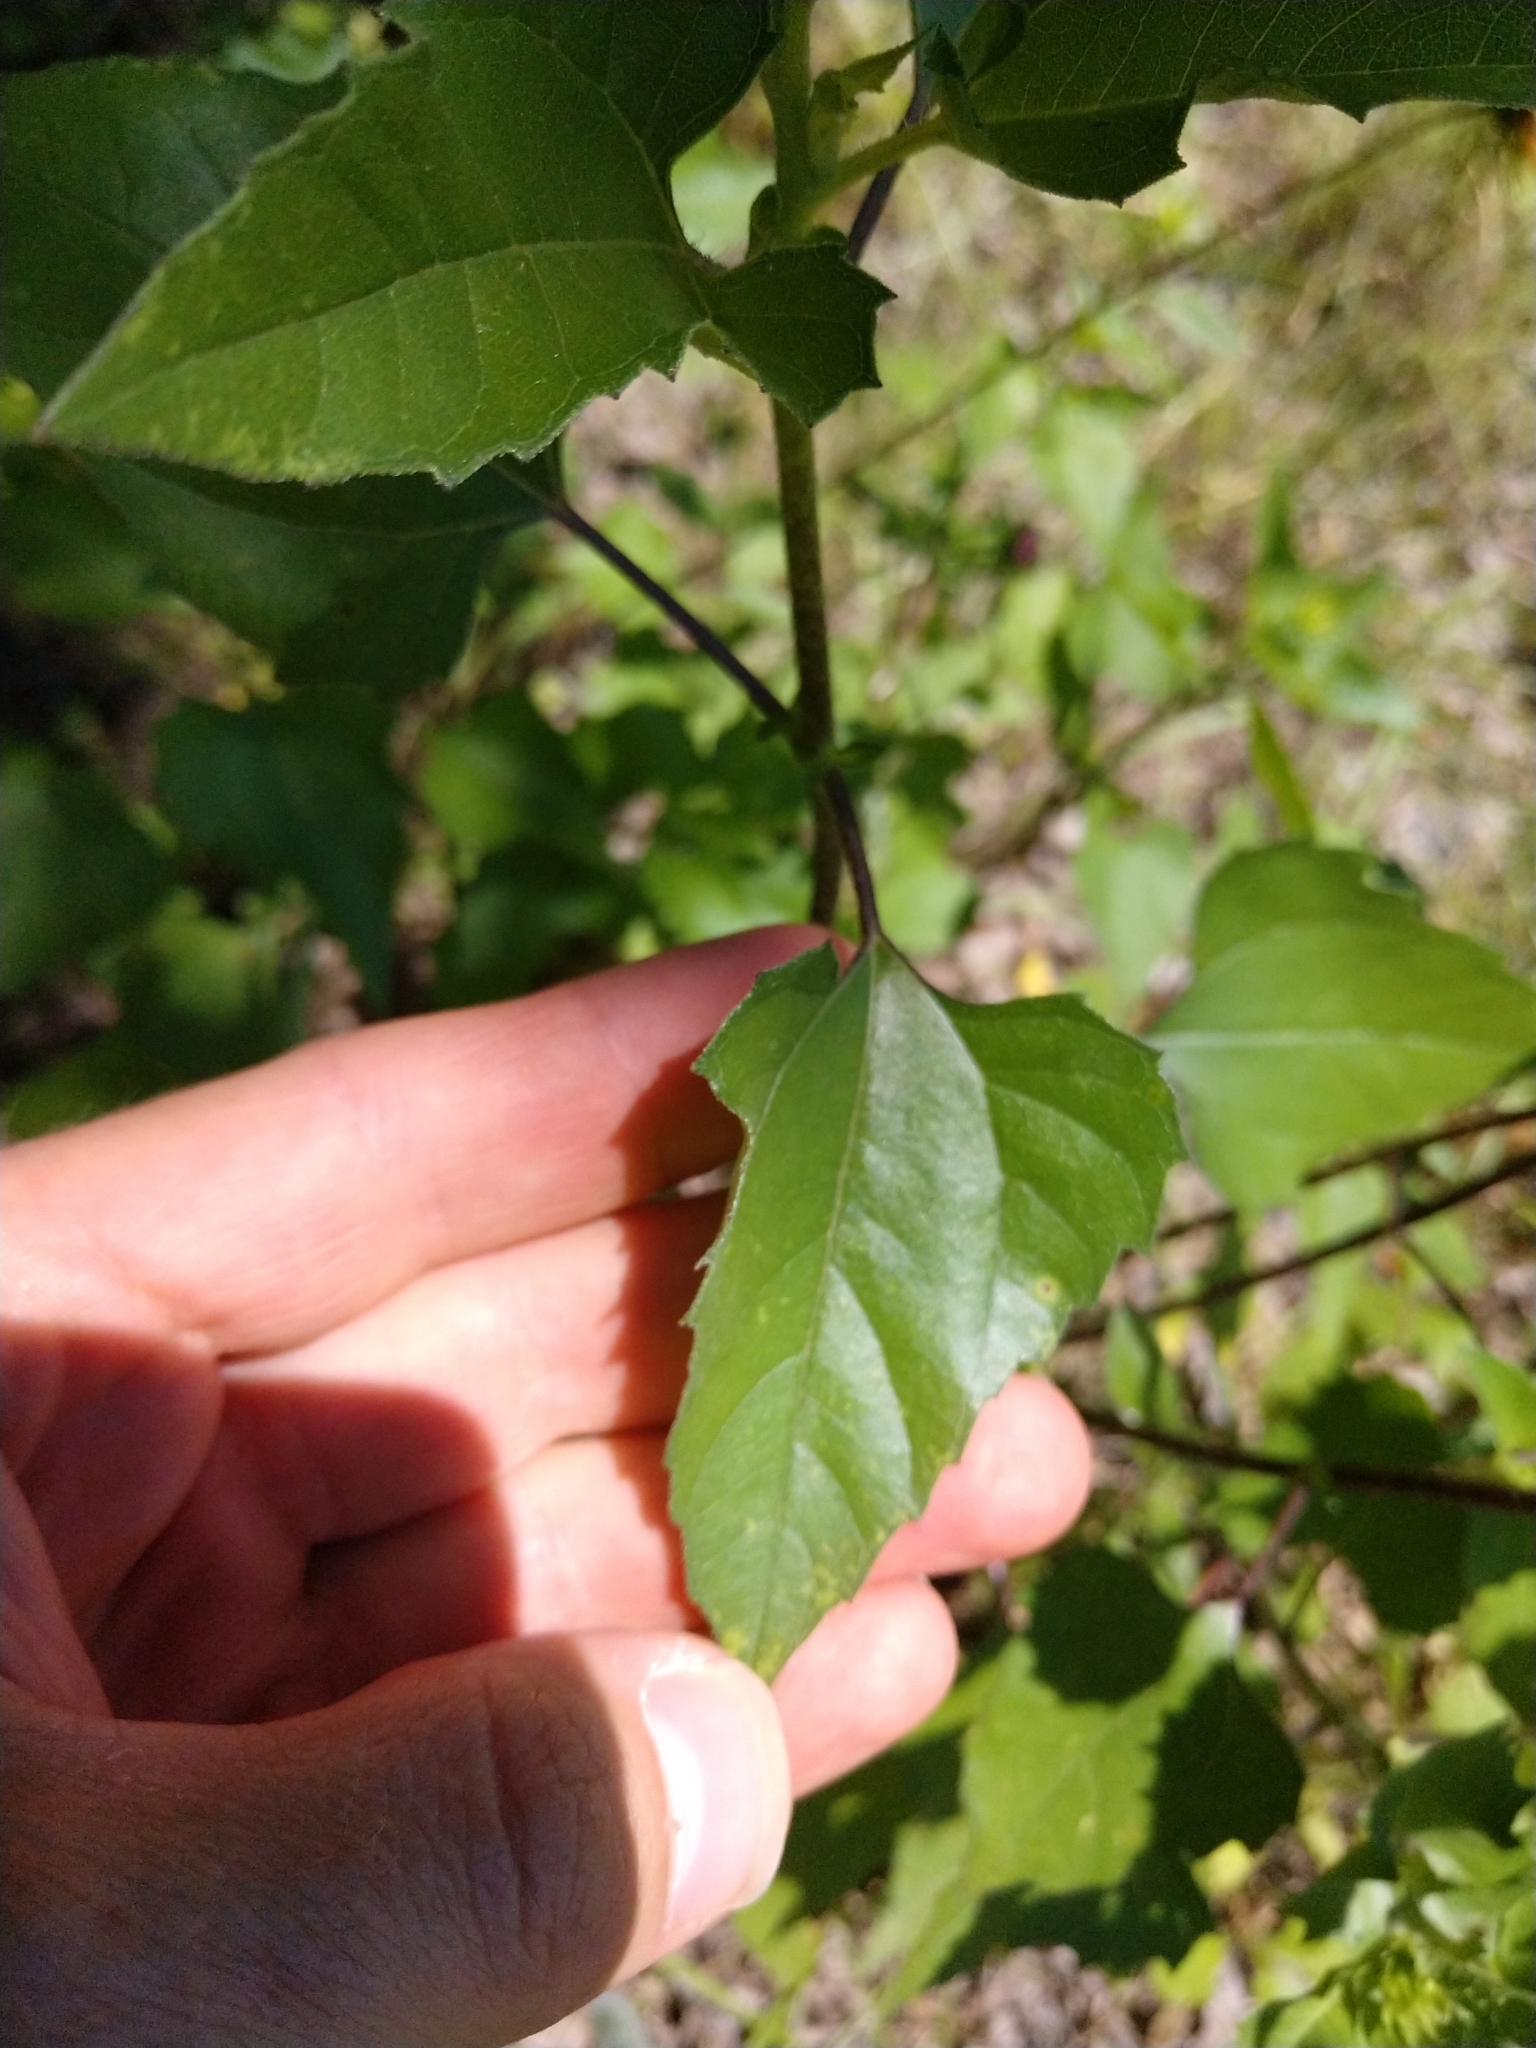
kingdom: Plantae
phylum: Tracheophyta
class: Magnoliopsida
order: Asterales
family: Asteraceae
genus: Helianthus
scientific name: Helianthus debilis
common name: Weak sunflower
